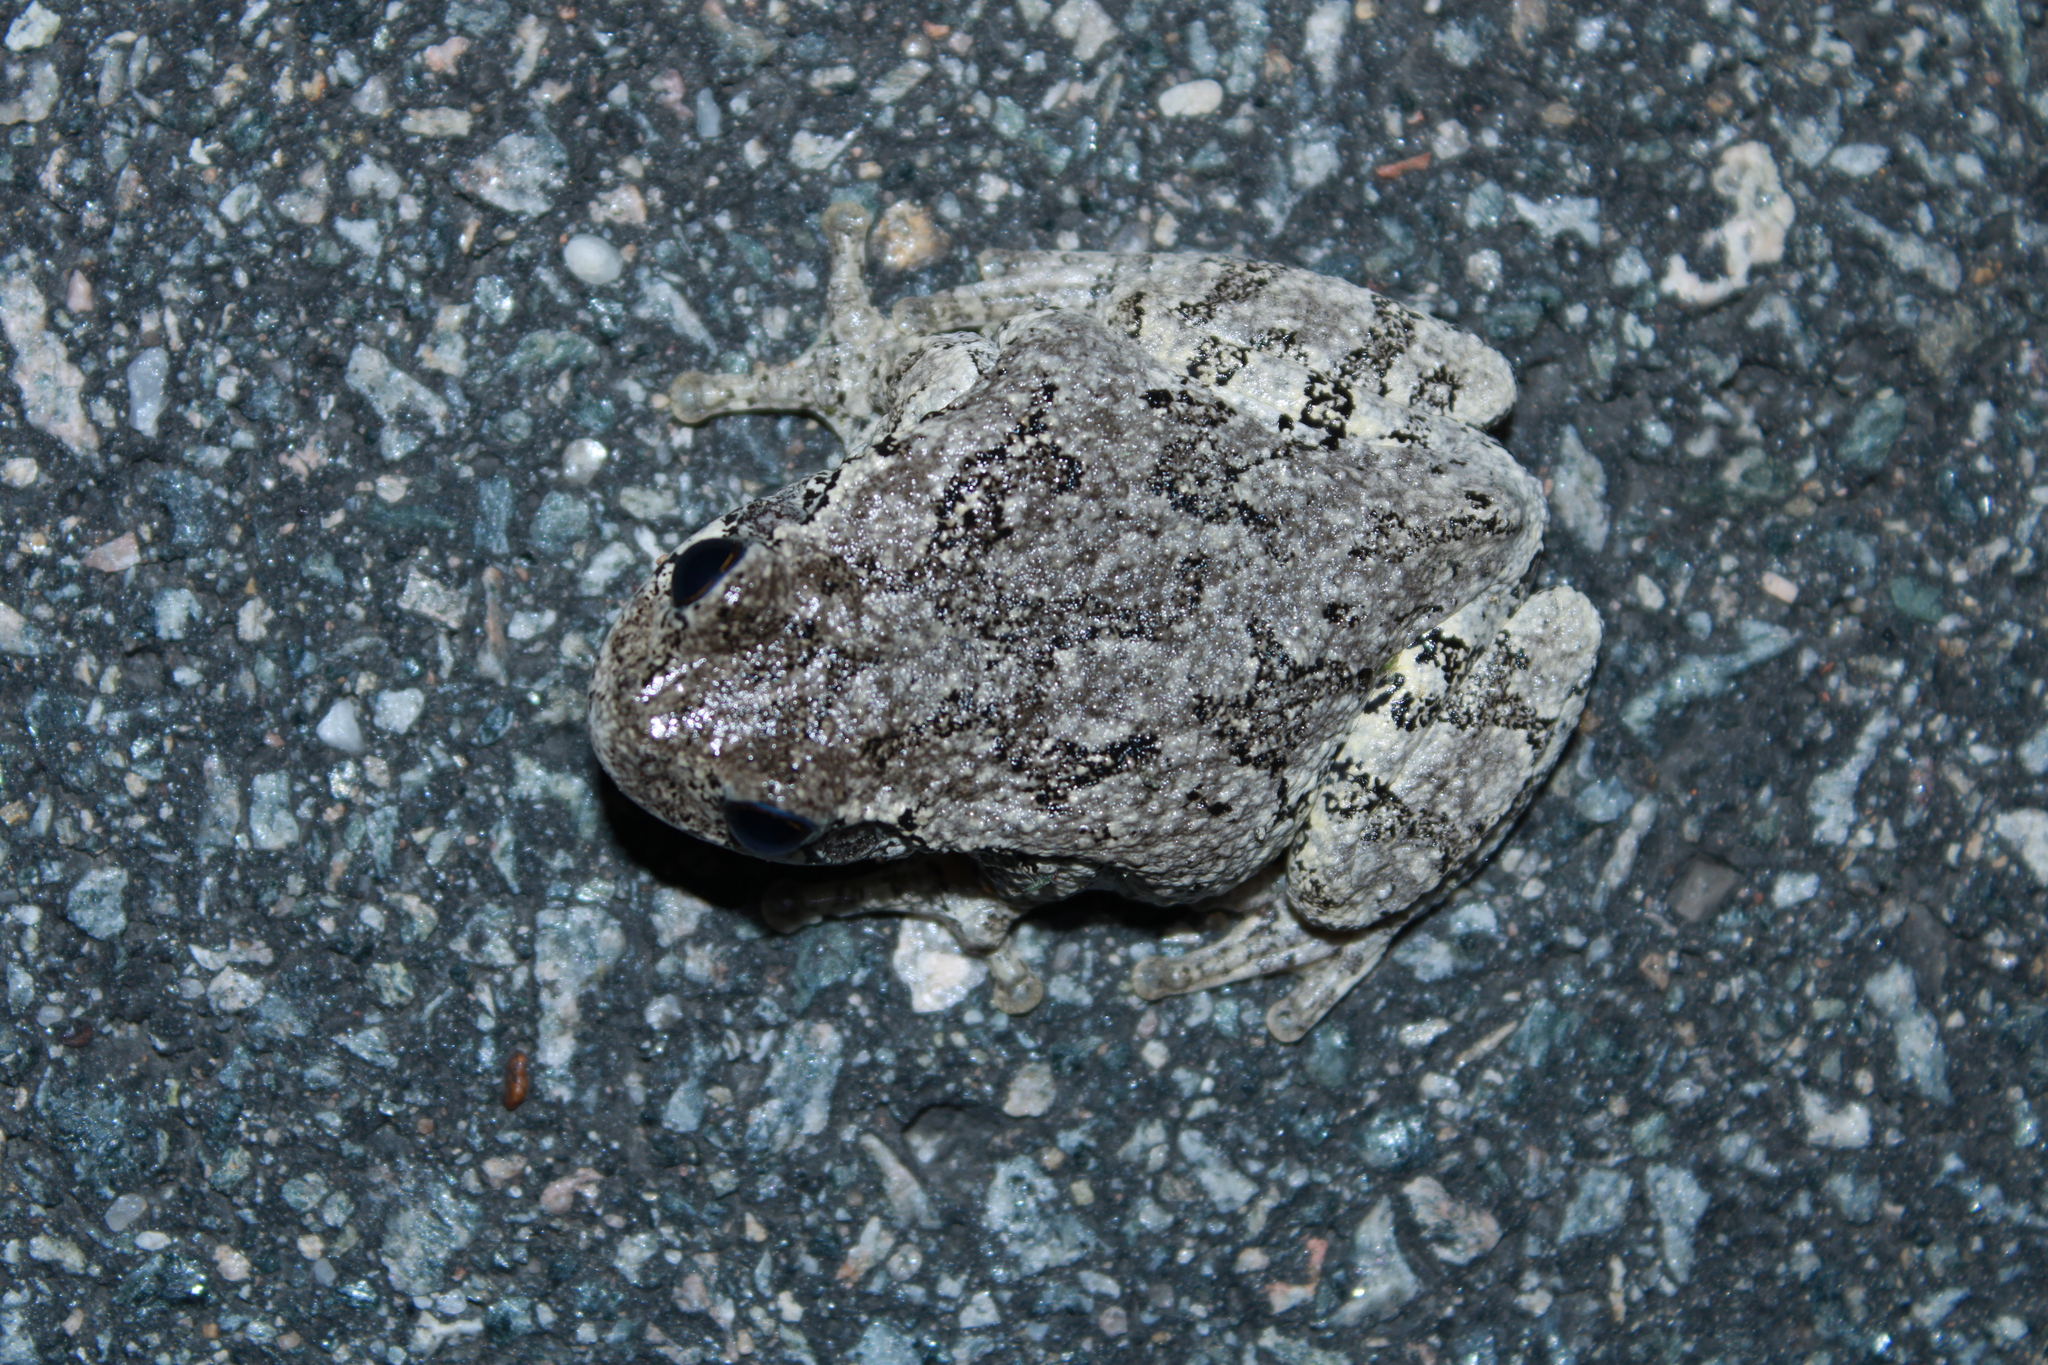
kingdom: Animalia
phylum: Chordata
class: Amphibia
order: Anura
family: Hylidae
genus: Dryophytes
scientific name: Dryophytes versicolor
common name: Gray treefrog
